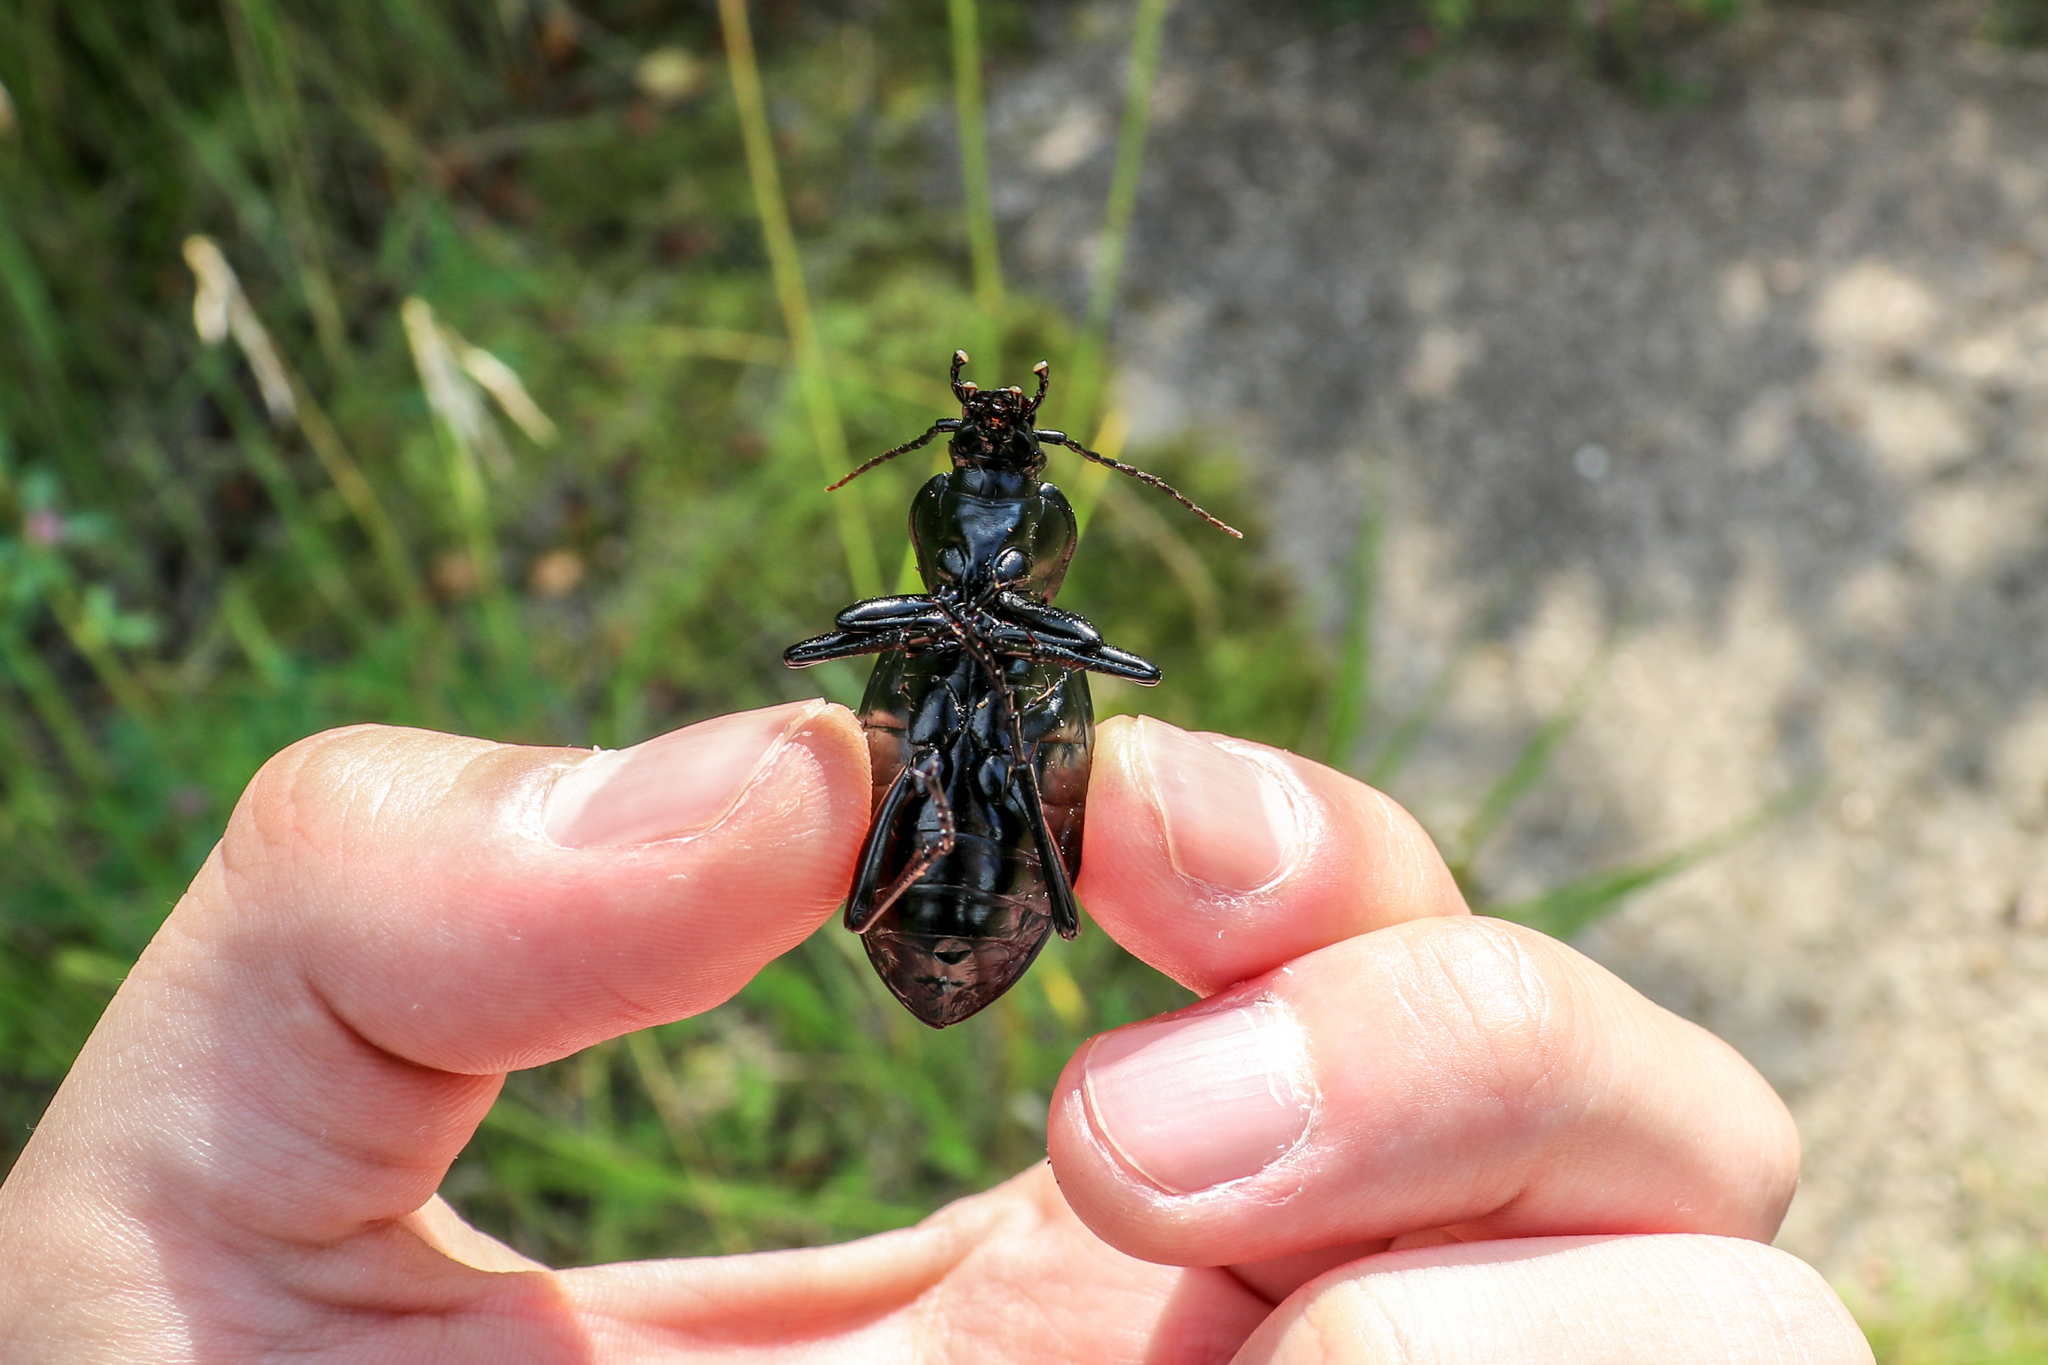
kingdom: Animalia
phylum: Arthropoda
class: Insecta
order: Coleoptera
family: Carabidae
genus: Carabus
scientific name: Carabus coriaceus
